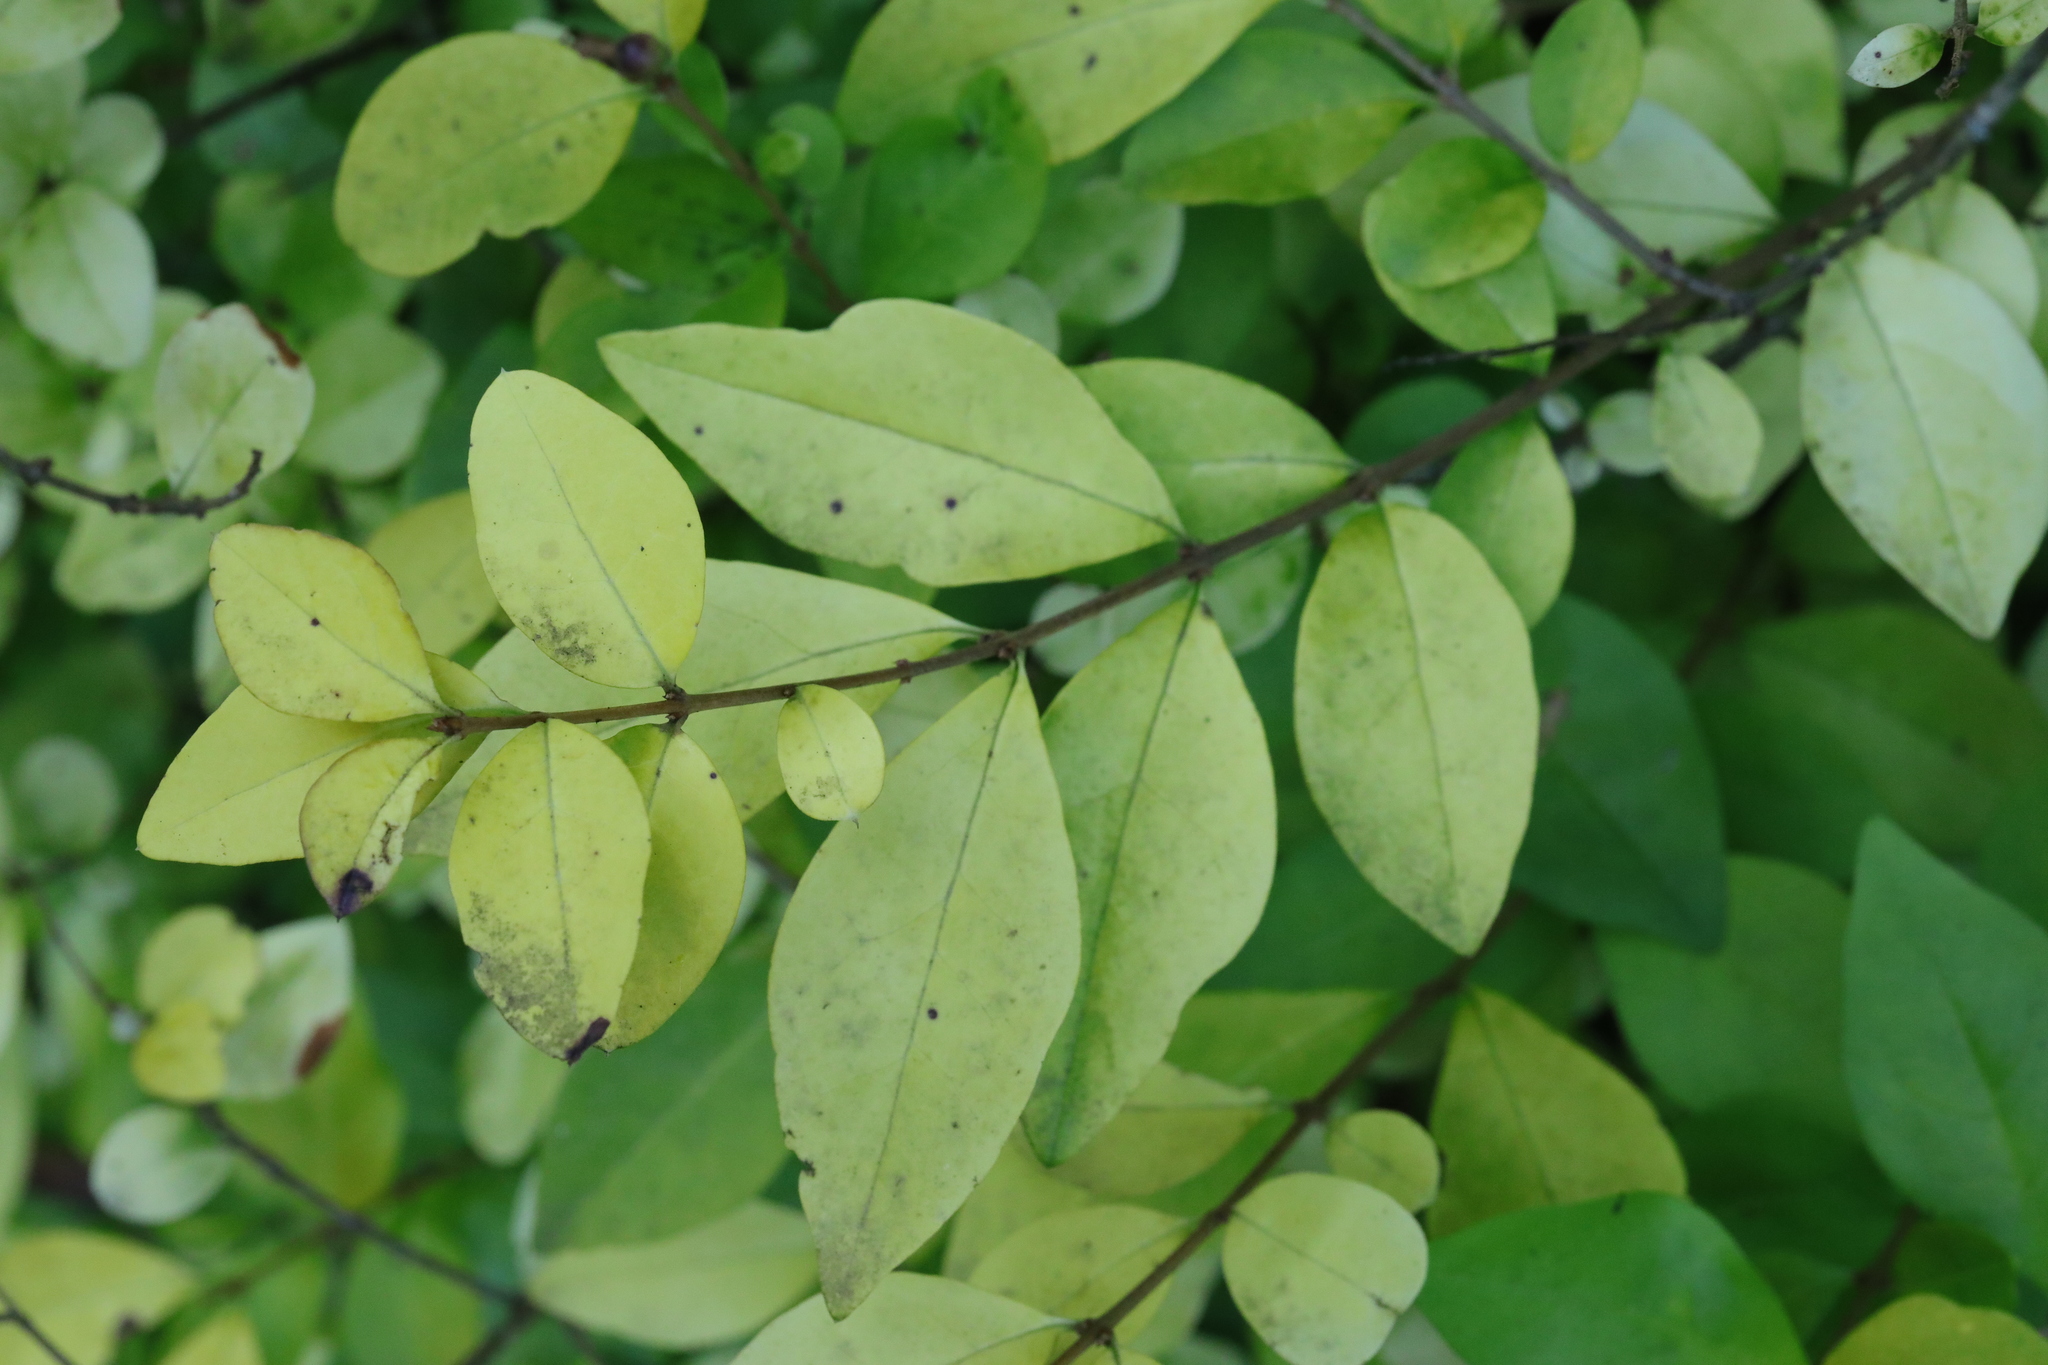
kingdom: Plantae
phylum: Tracheophyta
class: Magnoliopsida
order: Lamiales
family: Oleaceae
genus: Ligustrum
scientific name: Ligustrum ovalifolium
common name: California privet
